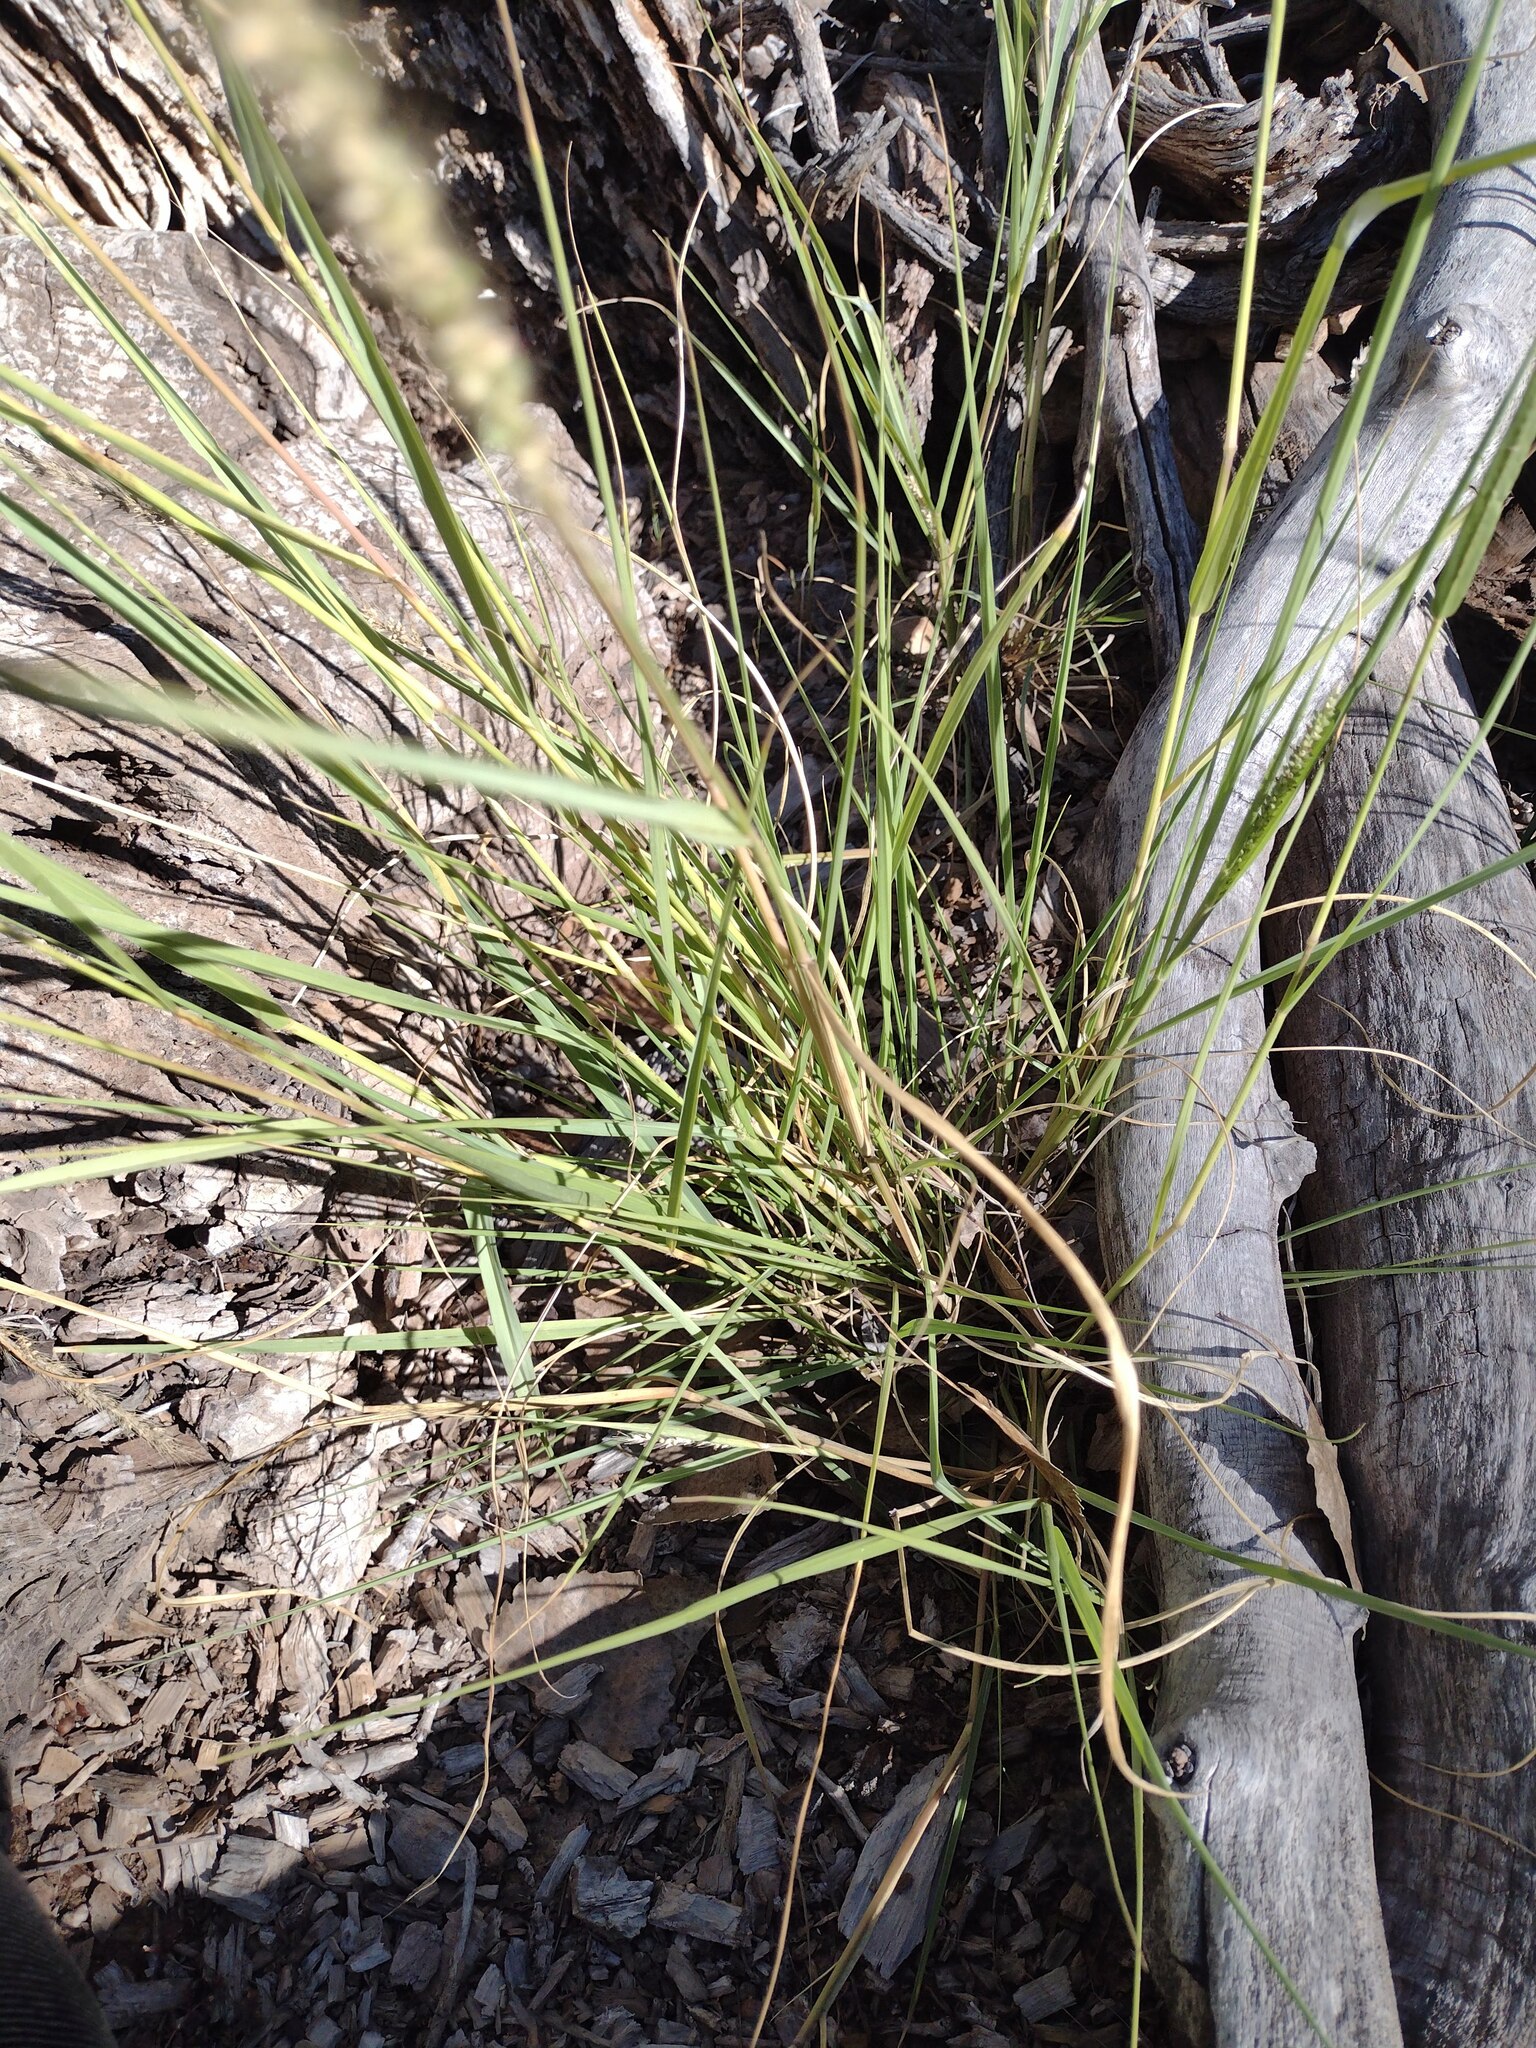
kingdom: Plantae
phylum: Tracheophyta
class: Liliopsida
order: Poales
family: Poaceae
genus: Setaria
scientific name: Setaria leucopila
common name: Plains bristle grass
